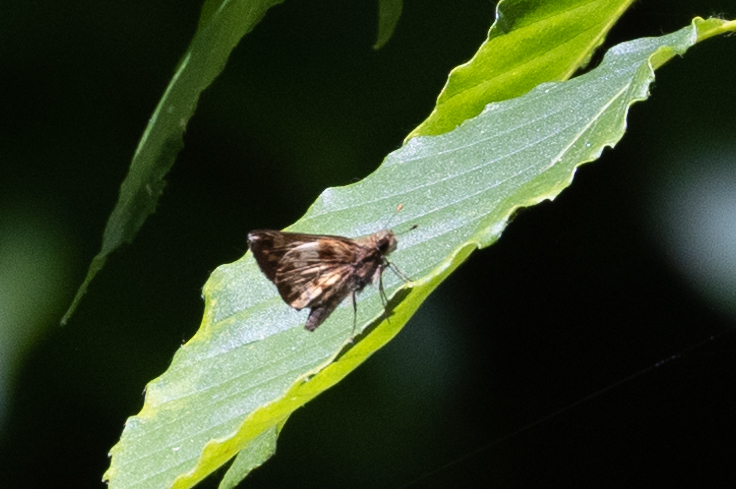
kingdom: Animalia
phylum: Arthropoda
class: Insecta
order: Lepidoptera
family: Hesperiidae
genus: Lon
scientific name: Lon zabulon
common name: Zabulon skipper
